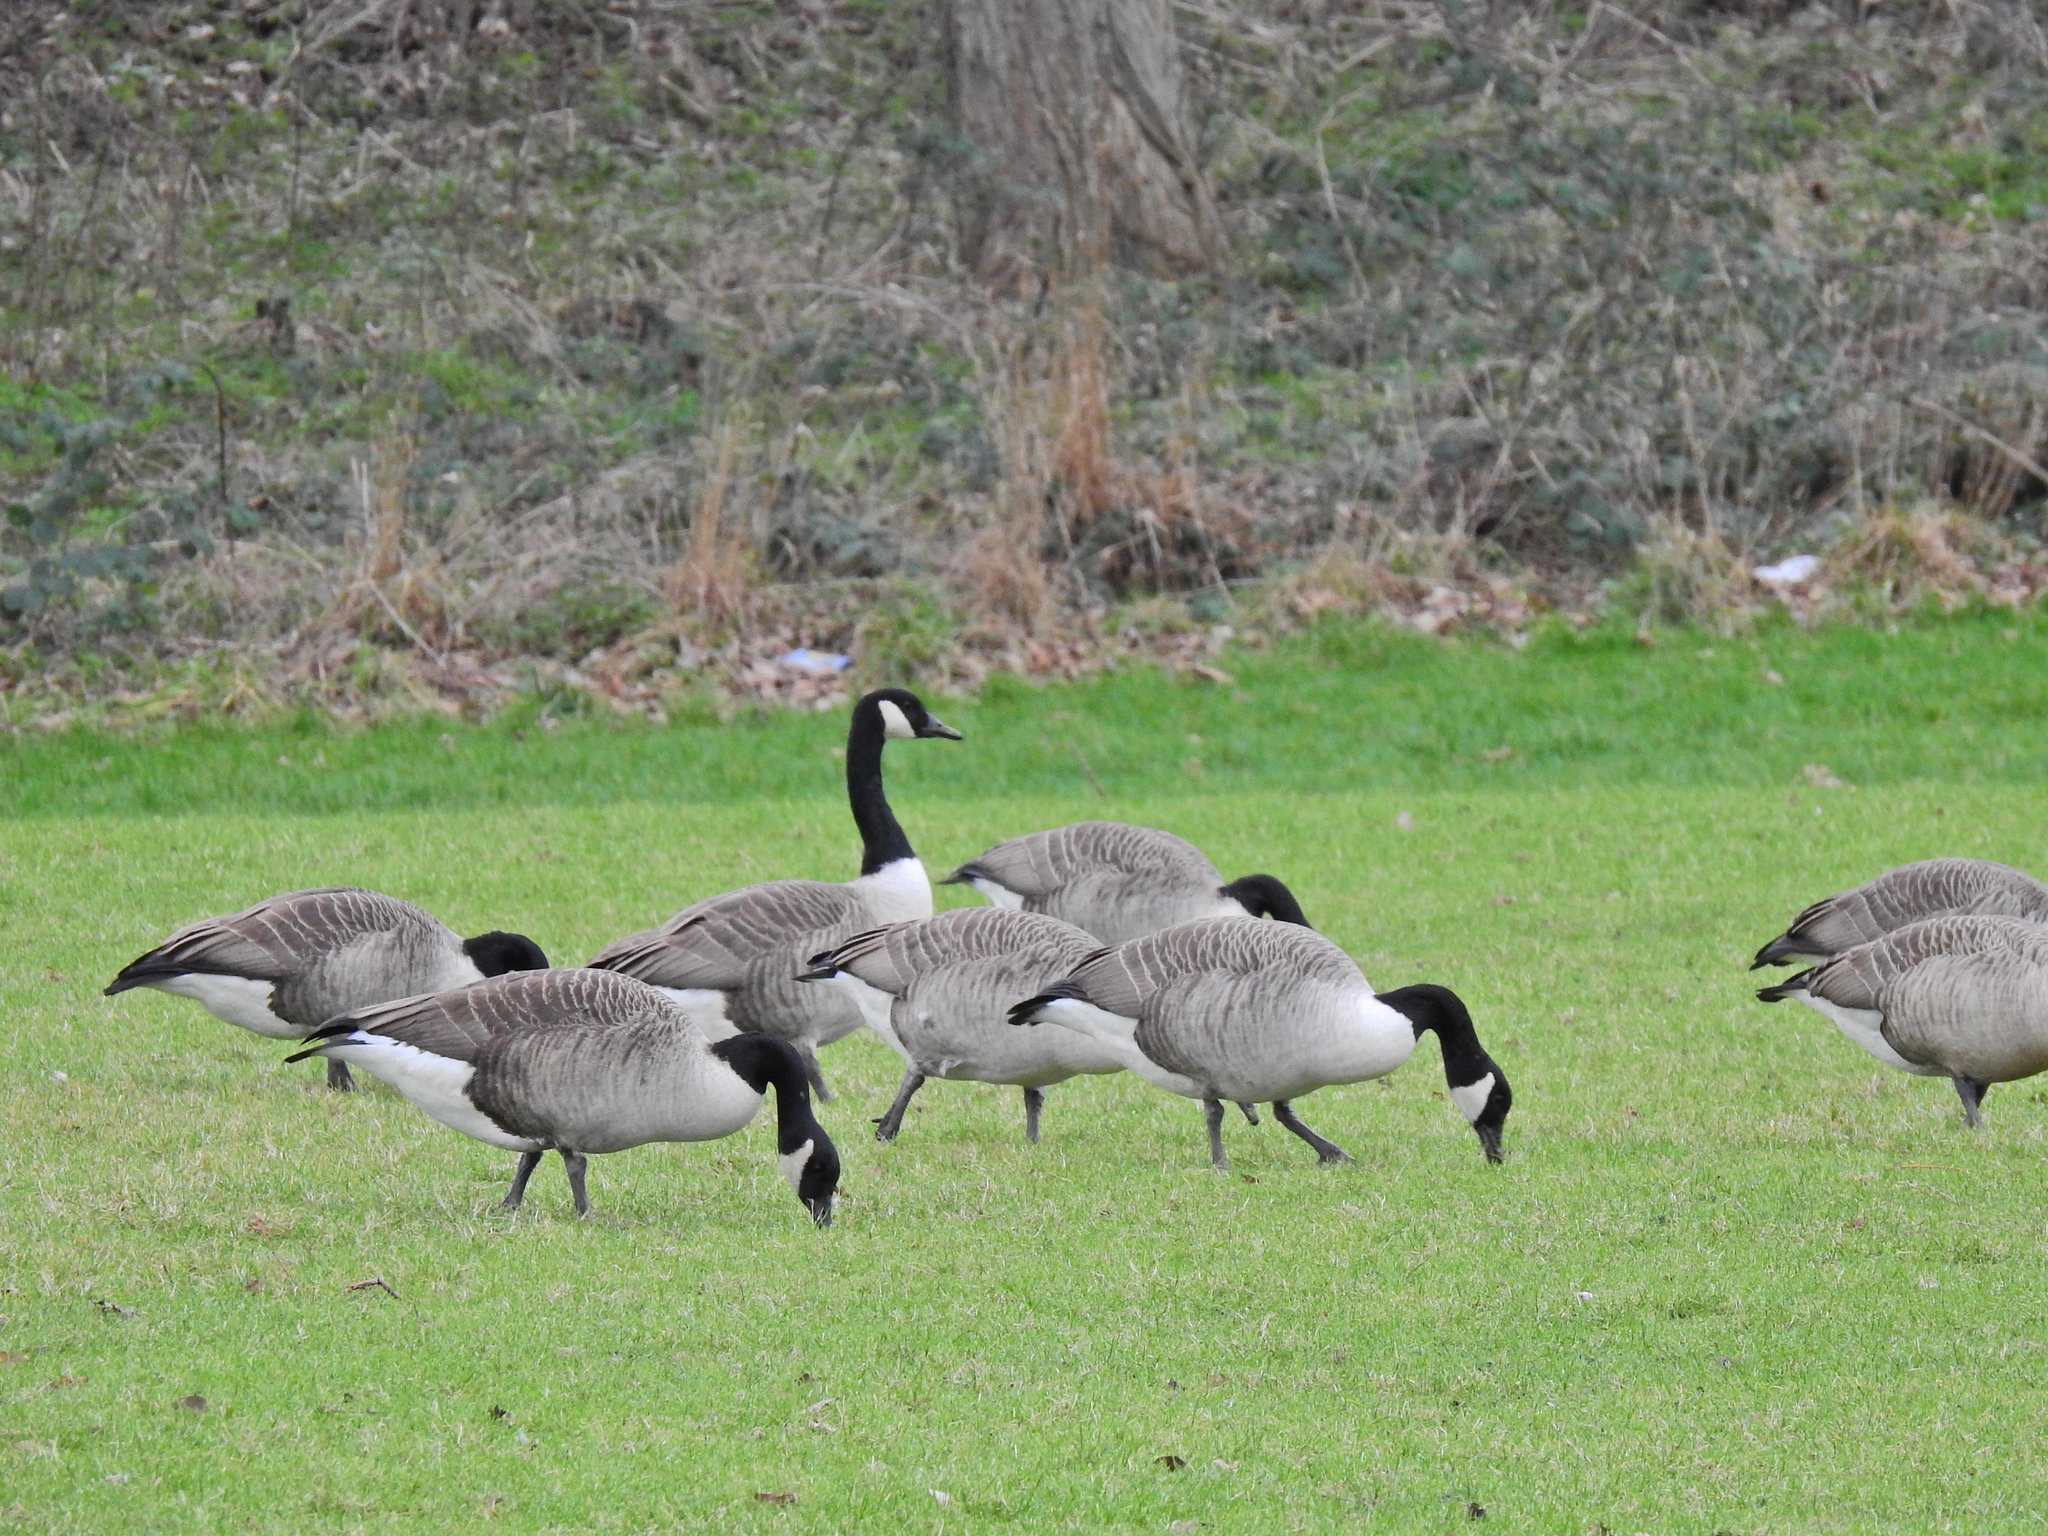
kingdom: Animalia
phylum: Chordata
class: Aves
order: Anseriformes
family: Anatidae
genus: Branta
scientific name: Branta canadensis
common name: Canada goose
